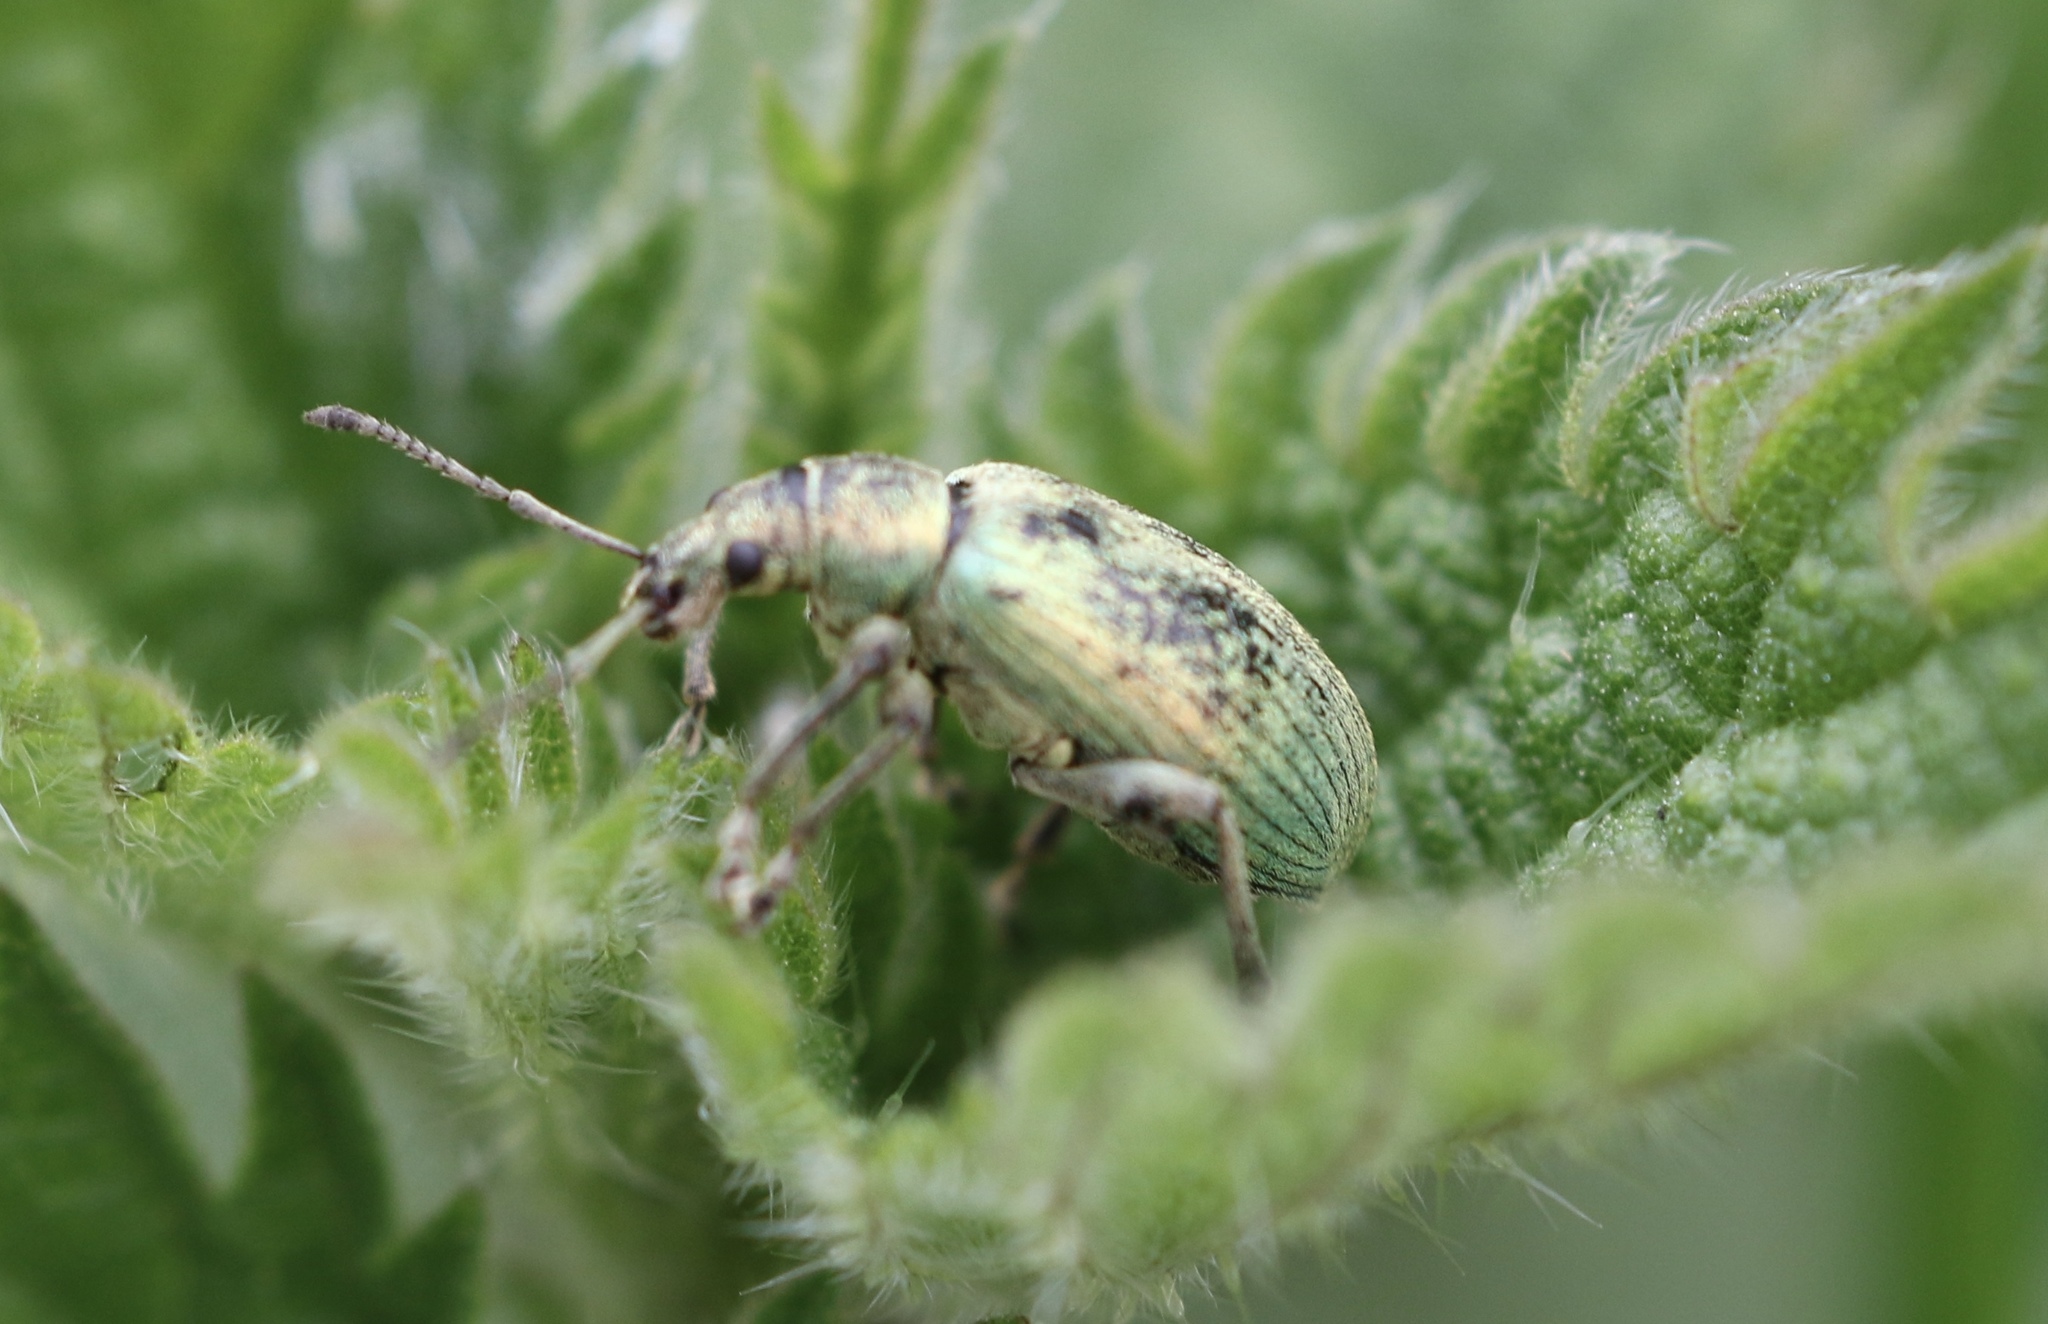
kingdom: Animalia
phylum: Arthropoda
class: Insecta
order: Coleoptera
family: Curculionidae
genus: Phyllobius
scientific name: Phyllobius pomaceus
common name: Green nettle weevil
